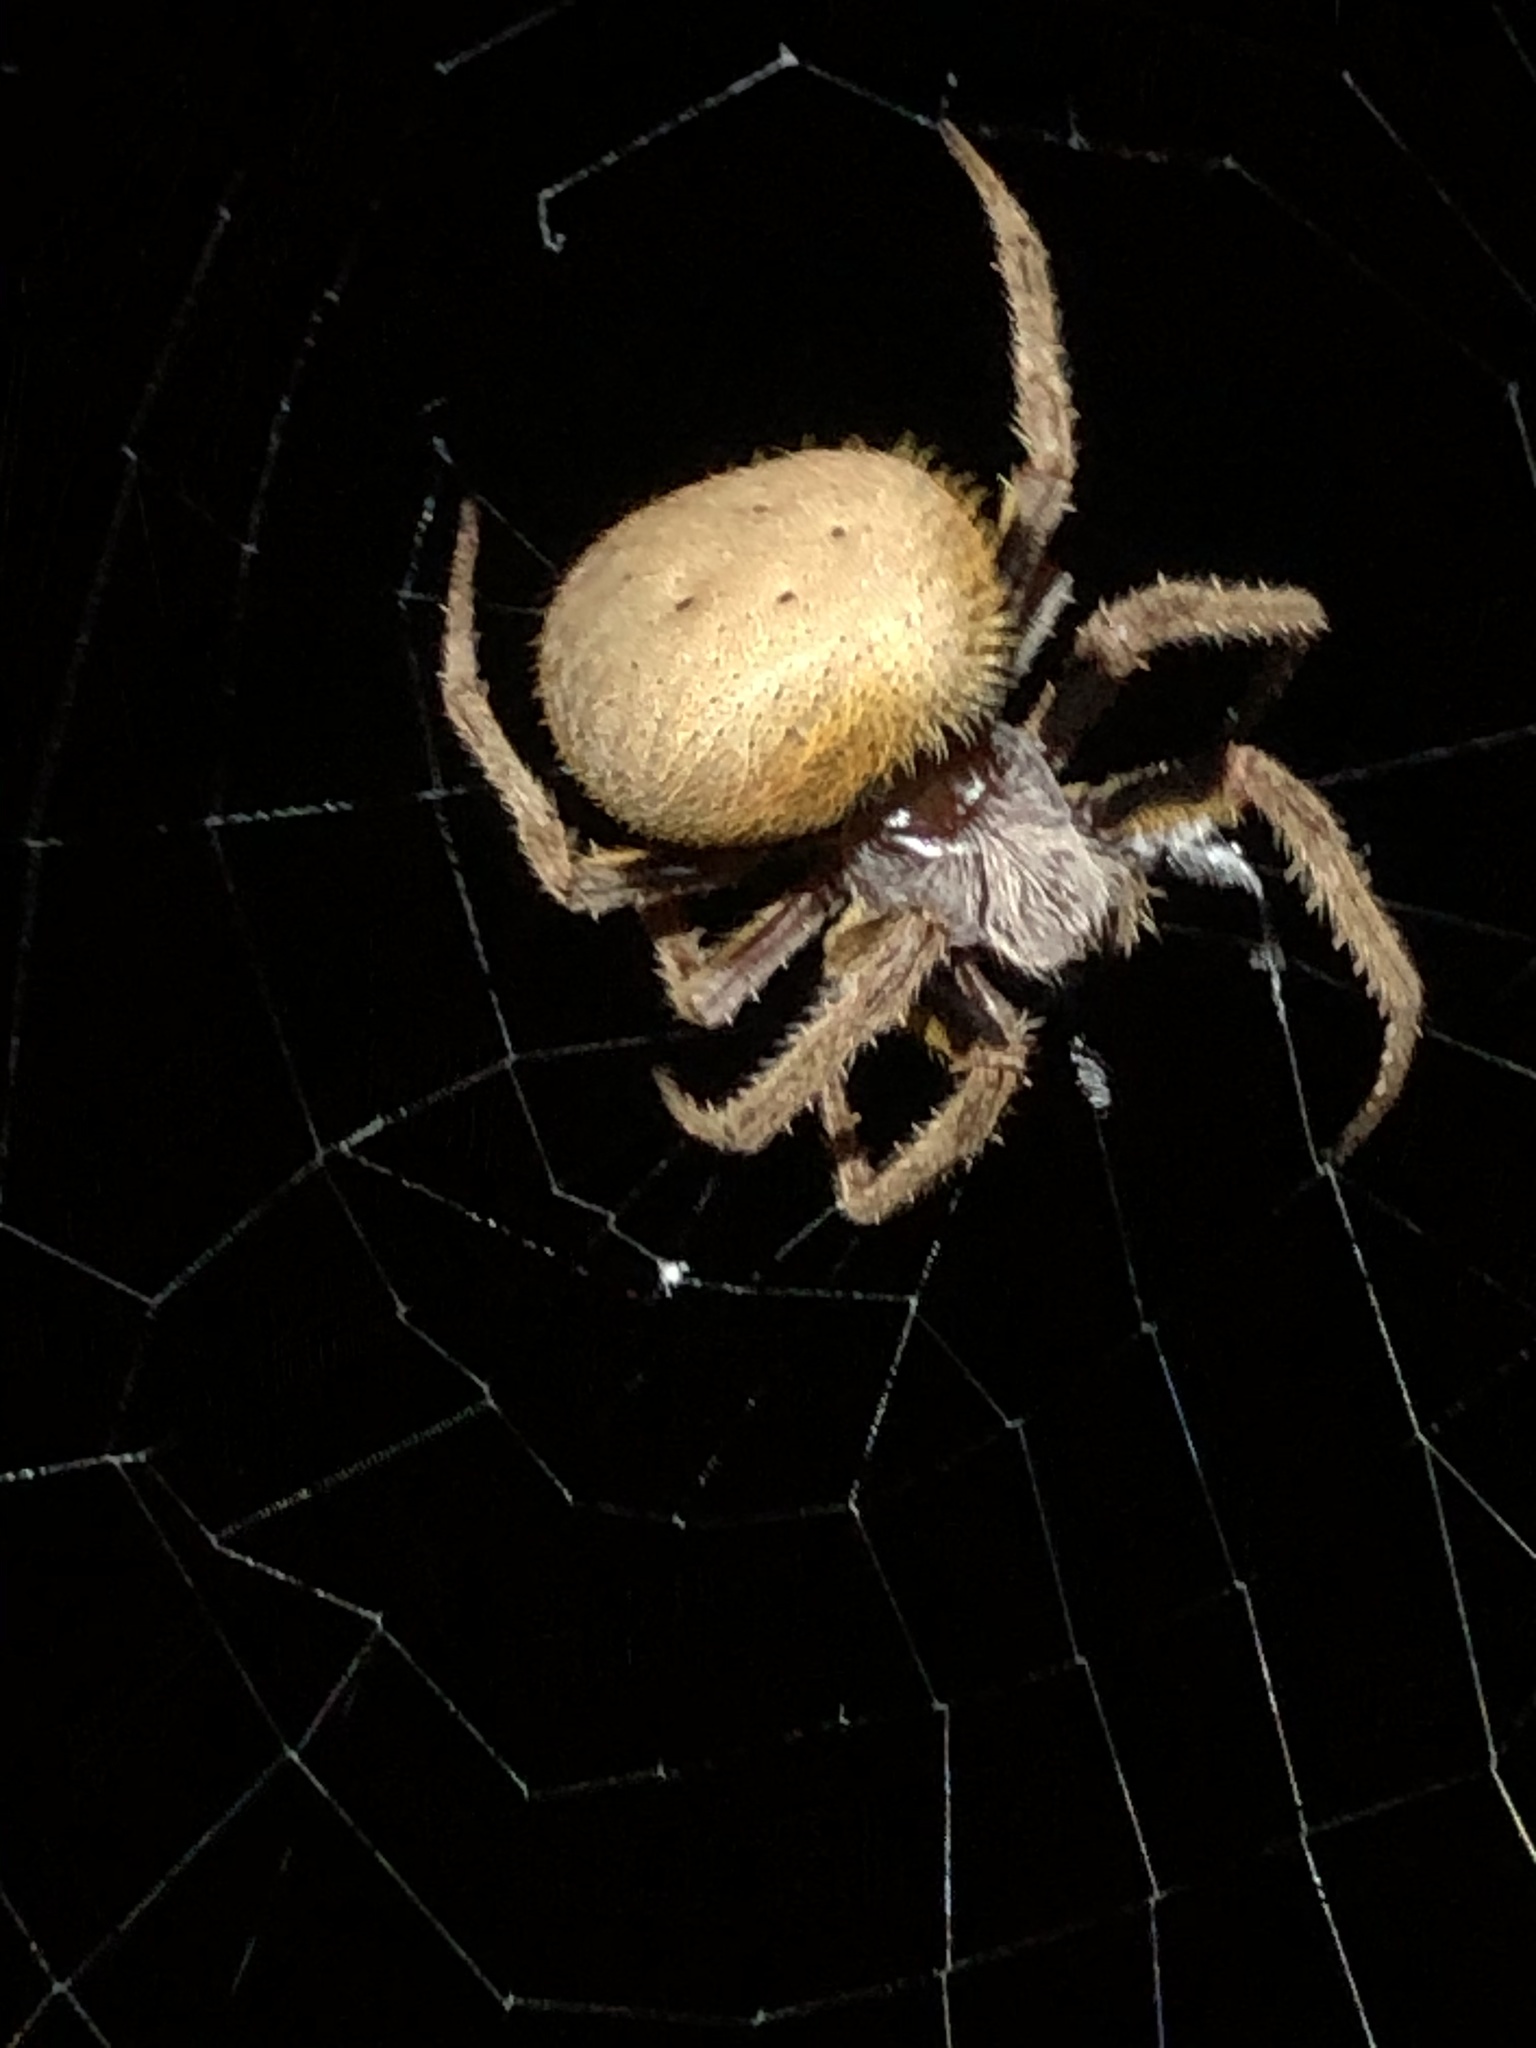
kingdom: Animalia
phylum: Arthropoda
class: Arachnida
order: Araneae
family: Araneidae
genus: Eriophora
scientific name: Eriophora ravilla
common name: Orb weavers
